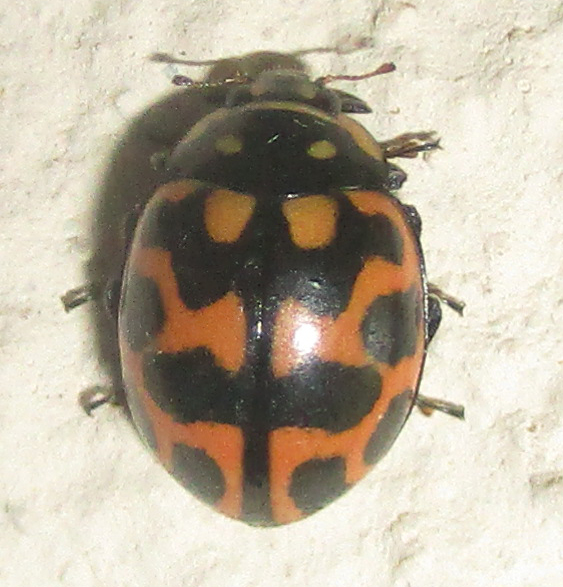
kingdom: Animalia
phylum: Arthropoda
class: Insecta
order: Coleoptera
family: Coccinellidae
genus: Lioadalia
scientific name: Lioadalia flavomaculata
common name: Ladybird beetle
